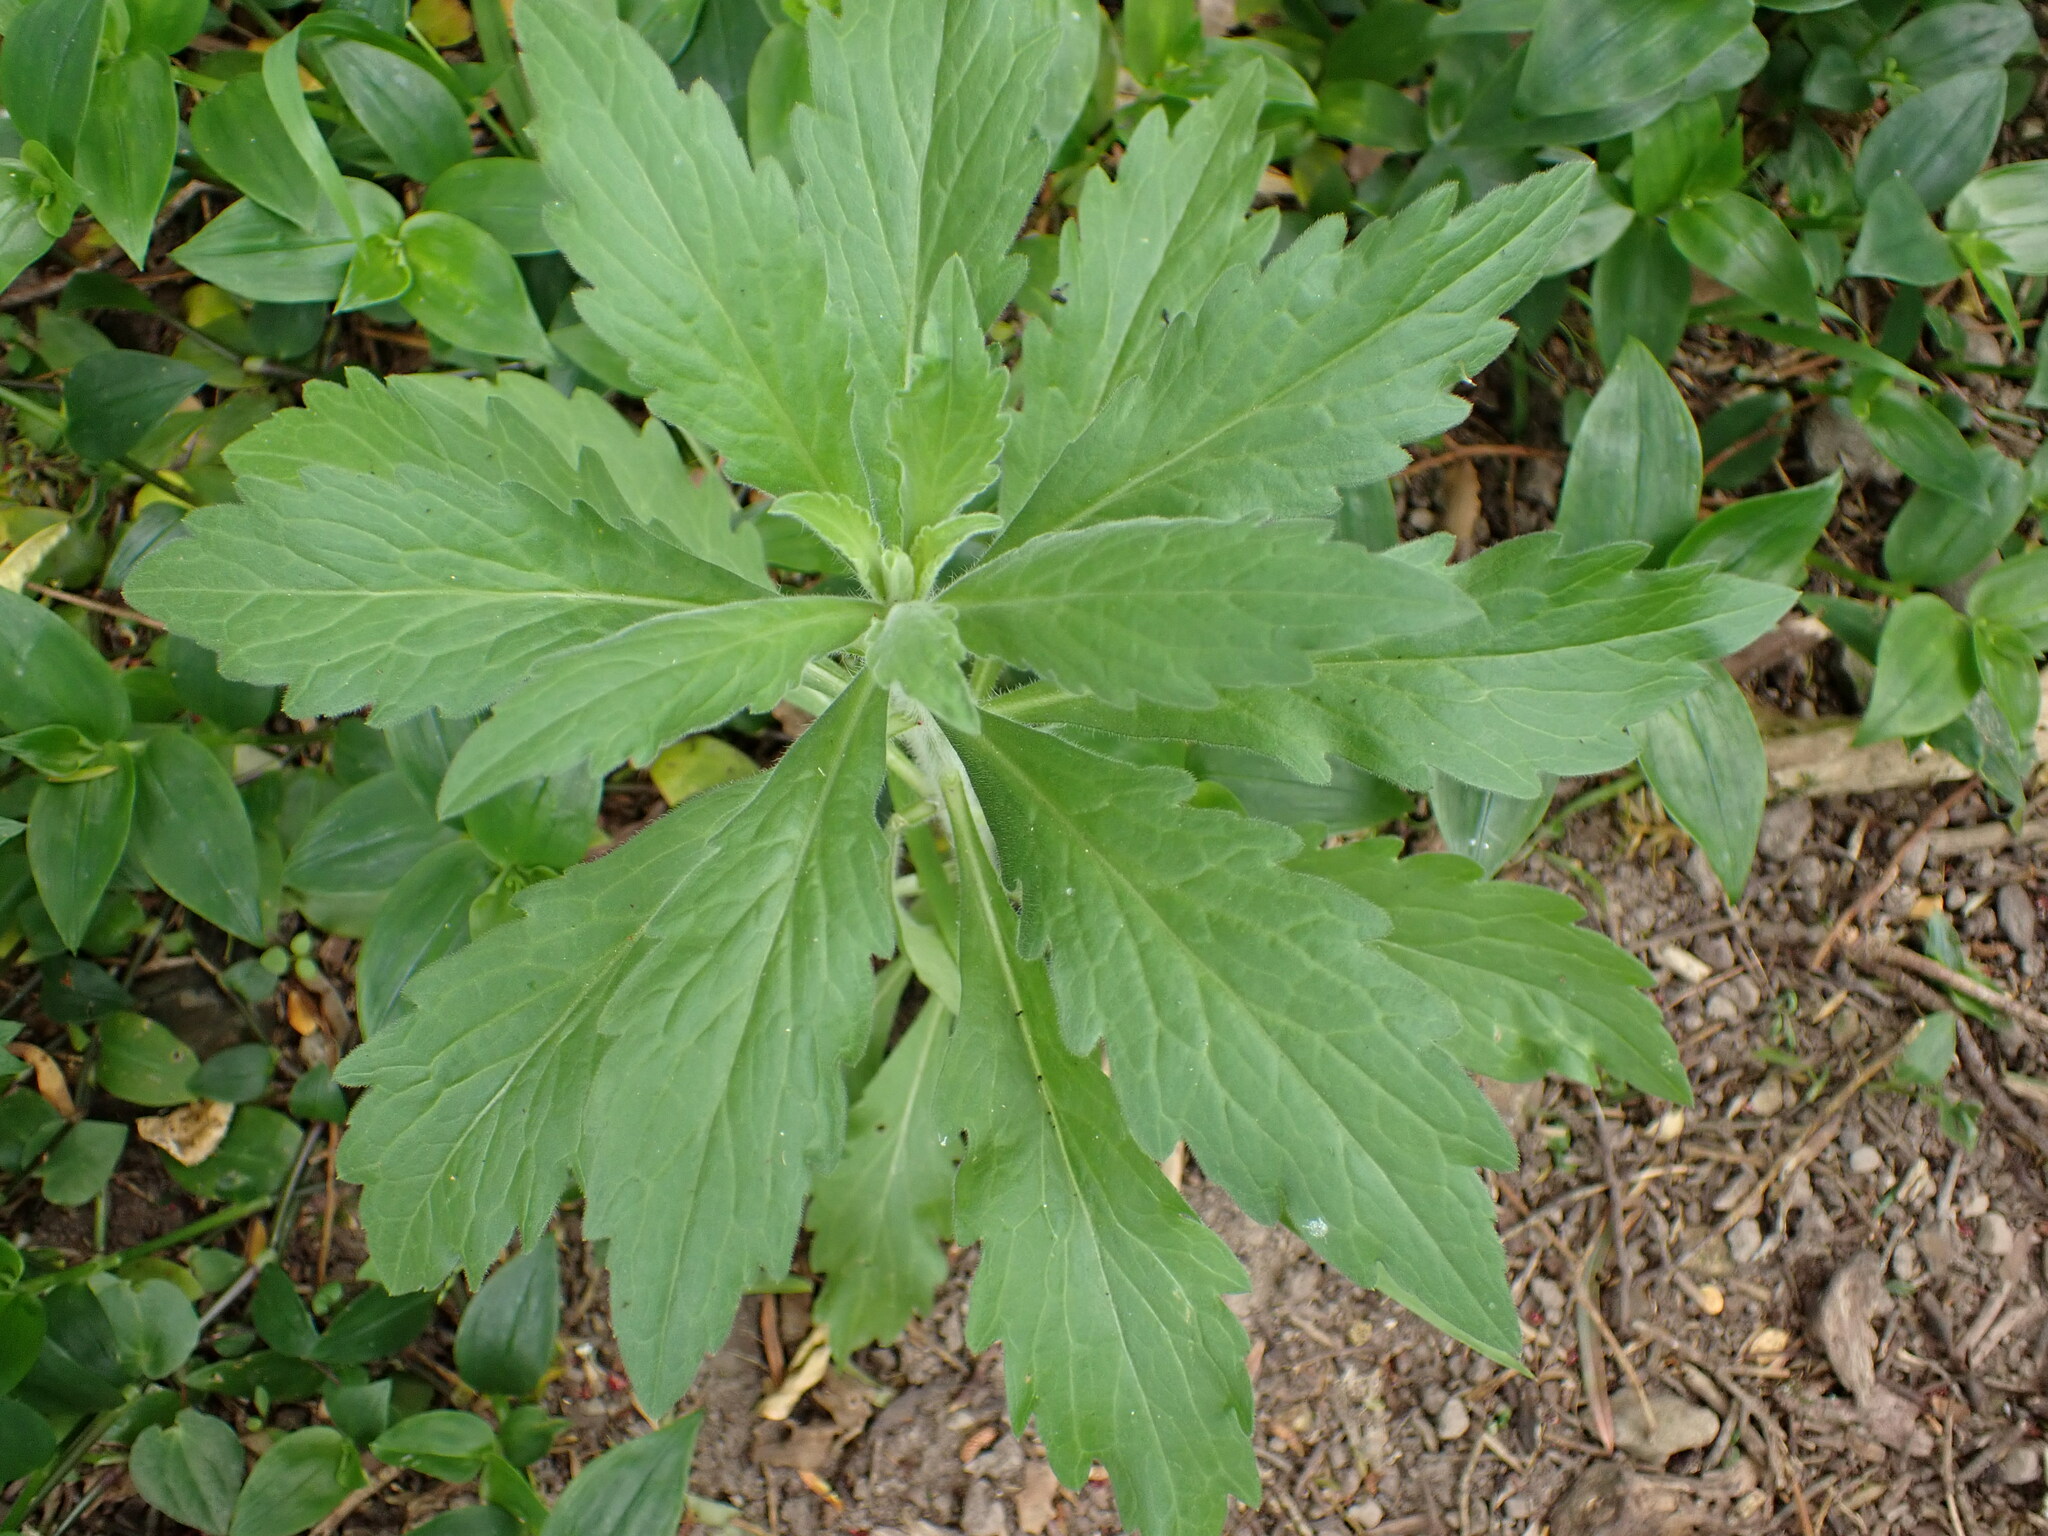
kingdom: Plantae
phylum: Tracheophyta
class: Magnoliopsida
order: Asterales
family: Asteraceae
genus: Erigeron
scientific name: Erigeron sumatrensis
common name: Daisy
